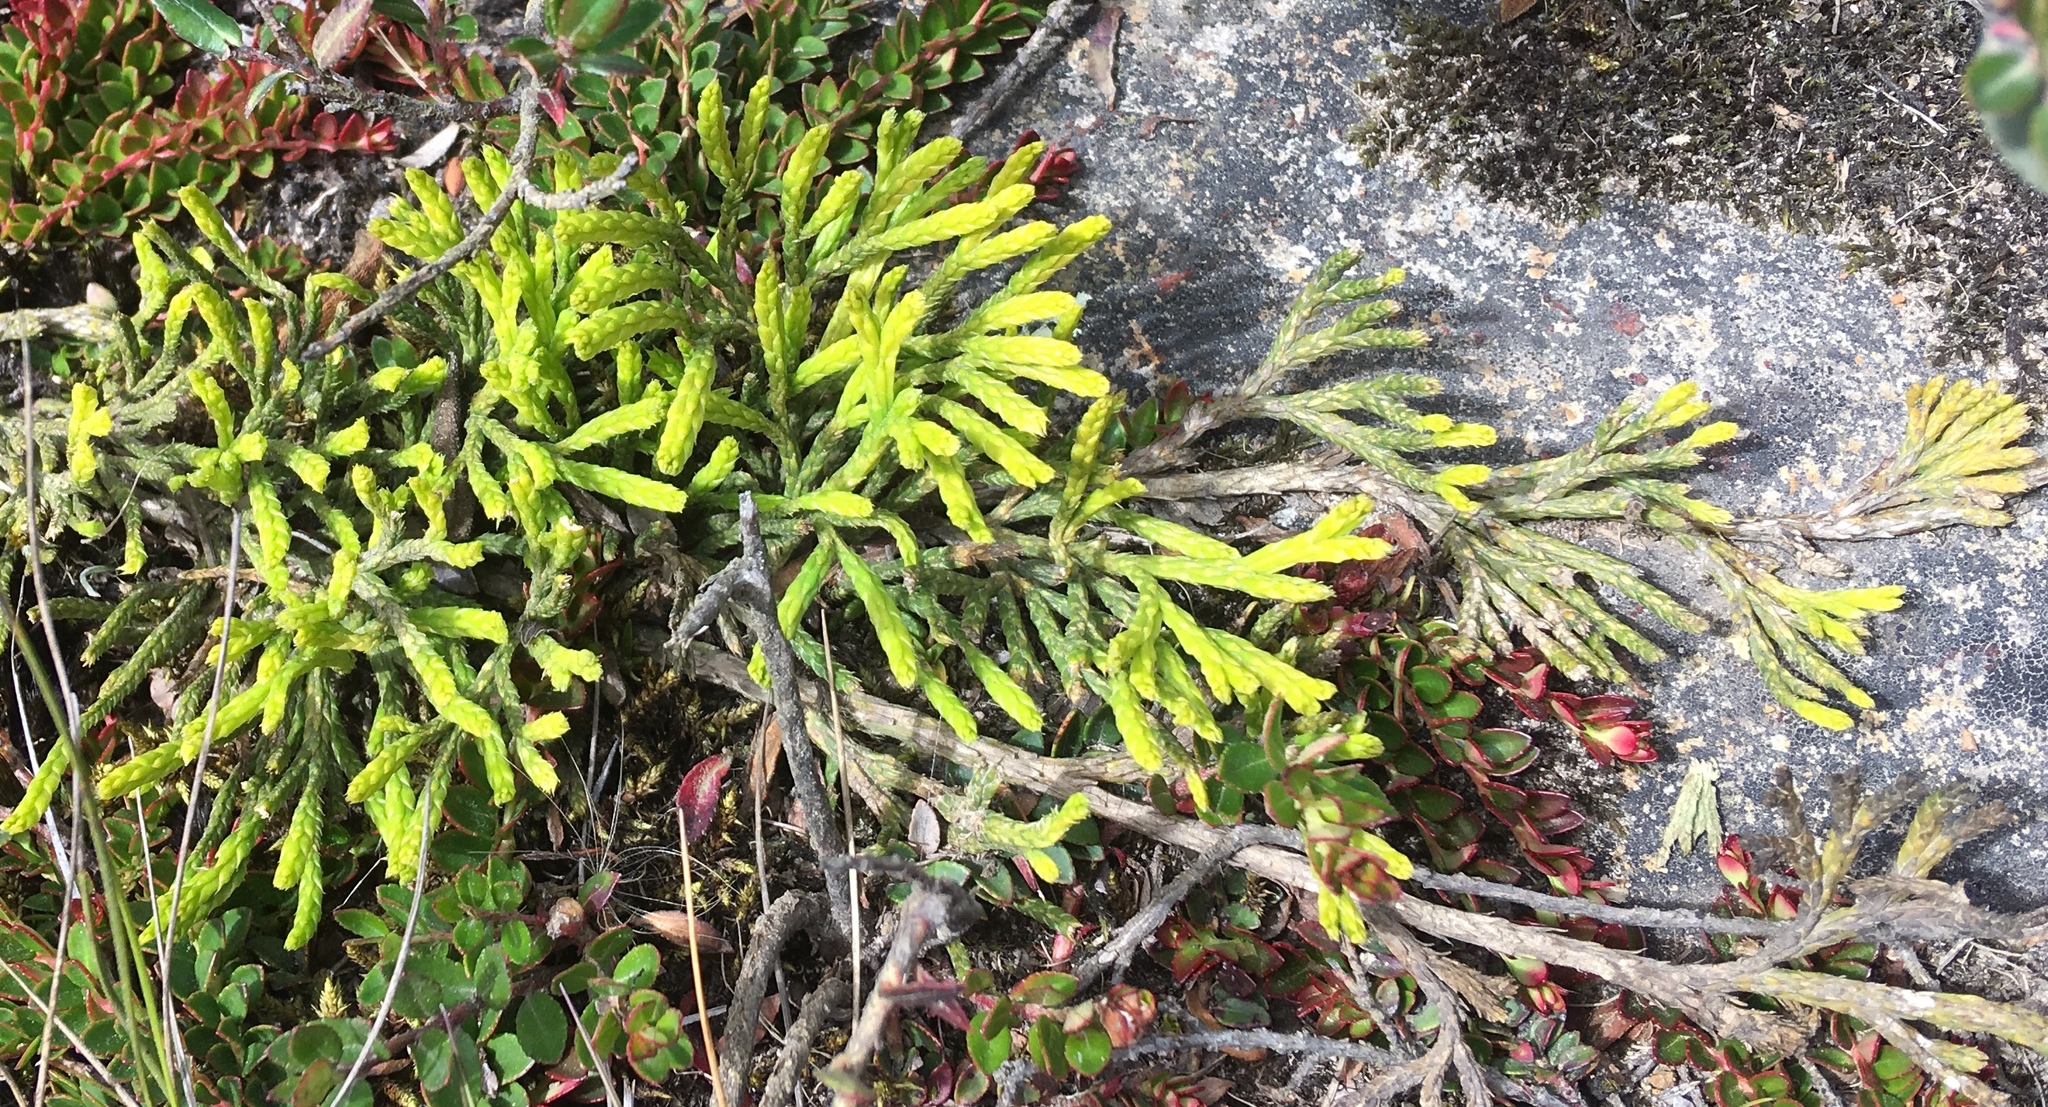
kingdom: Plantae
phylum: Tracheophyta
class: Lycopodiopsida
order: Lycopodiales
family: Lycopodiaceae
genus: Diphasiastrum
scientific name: Diphasiastrum thyoides
